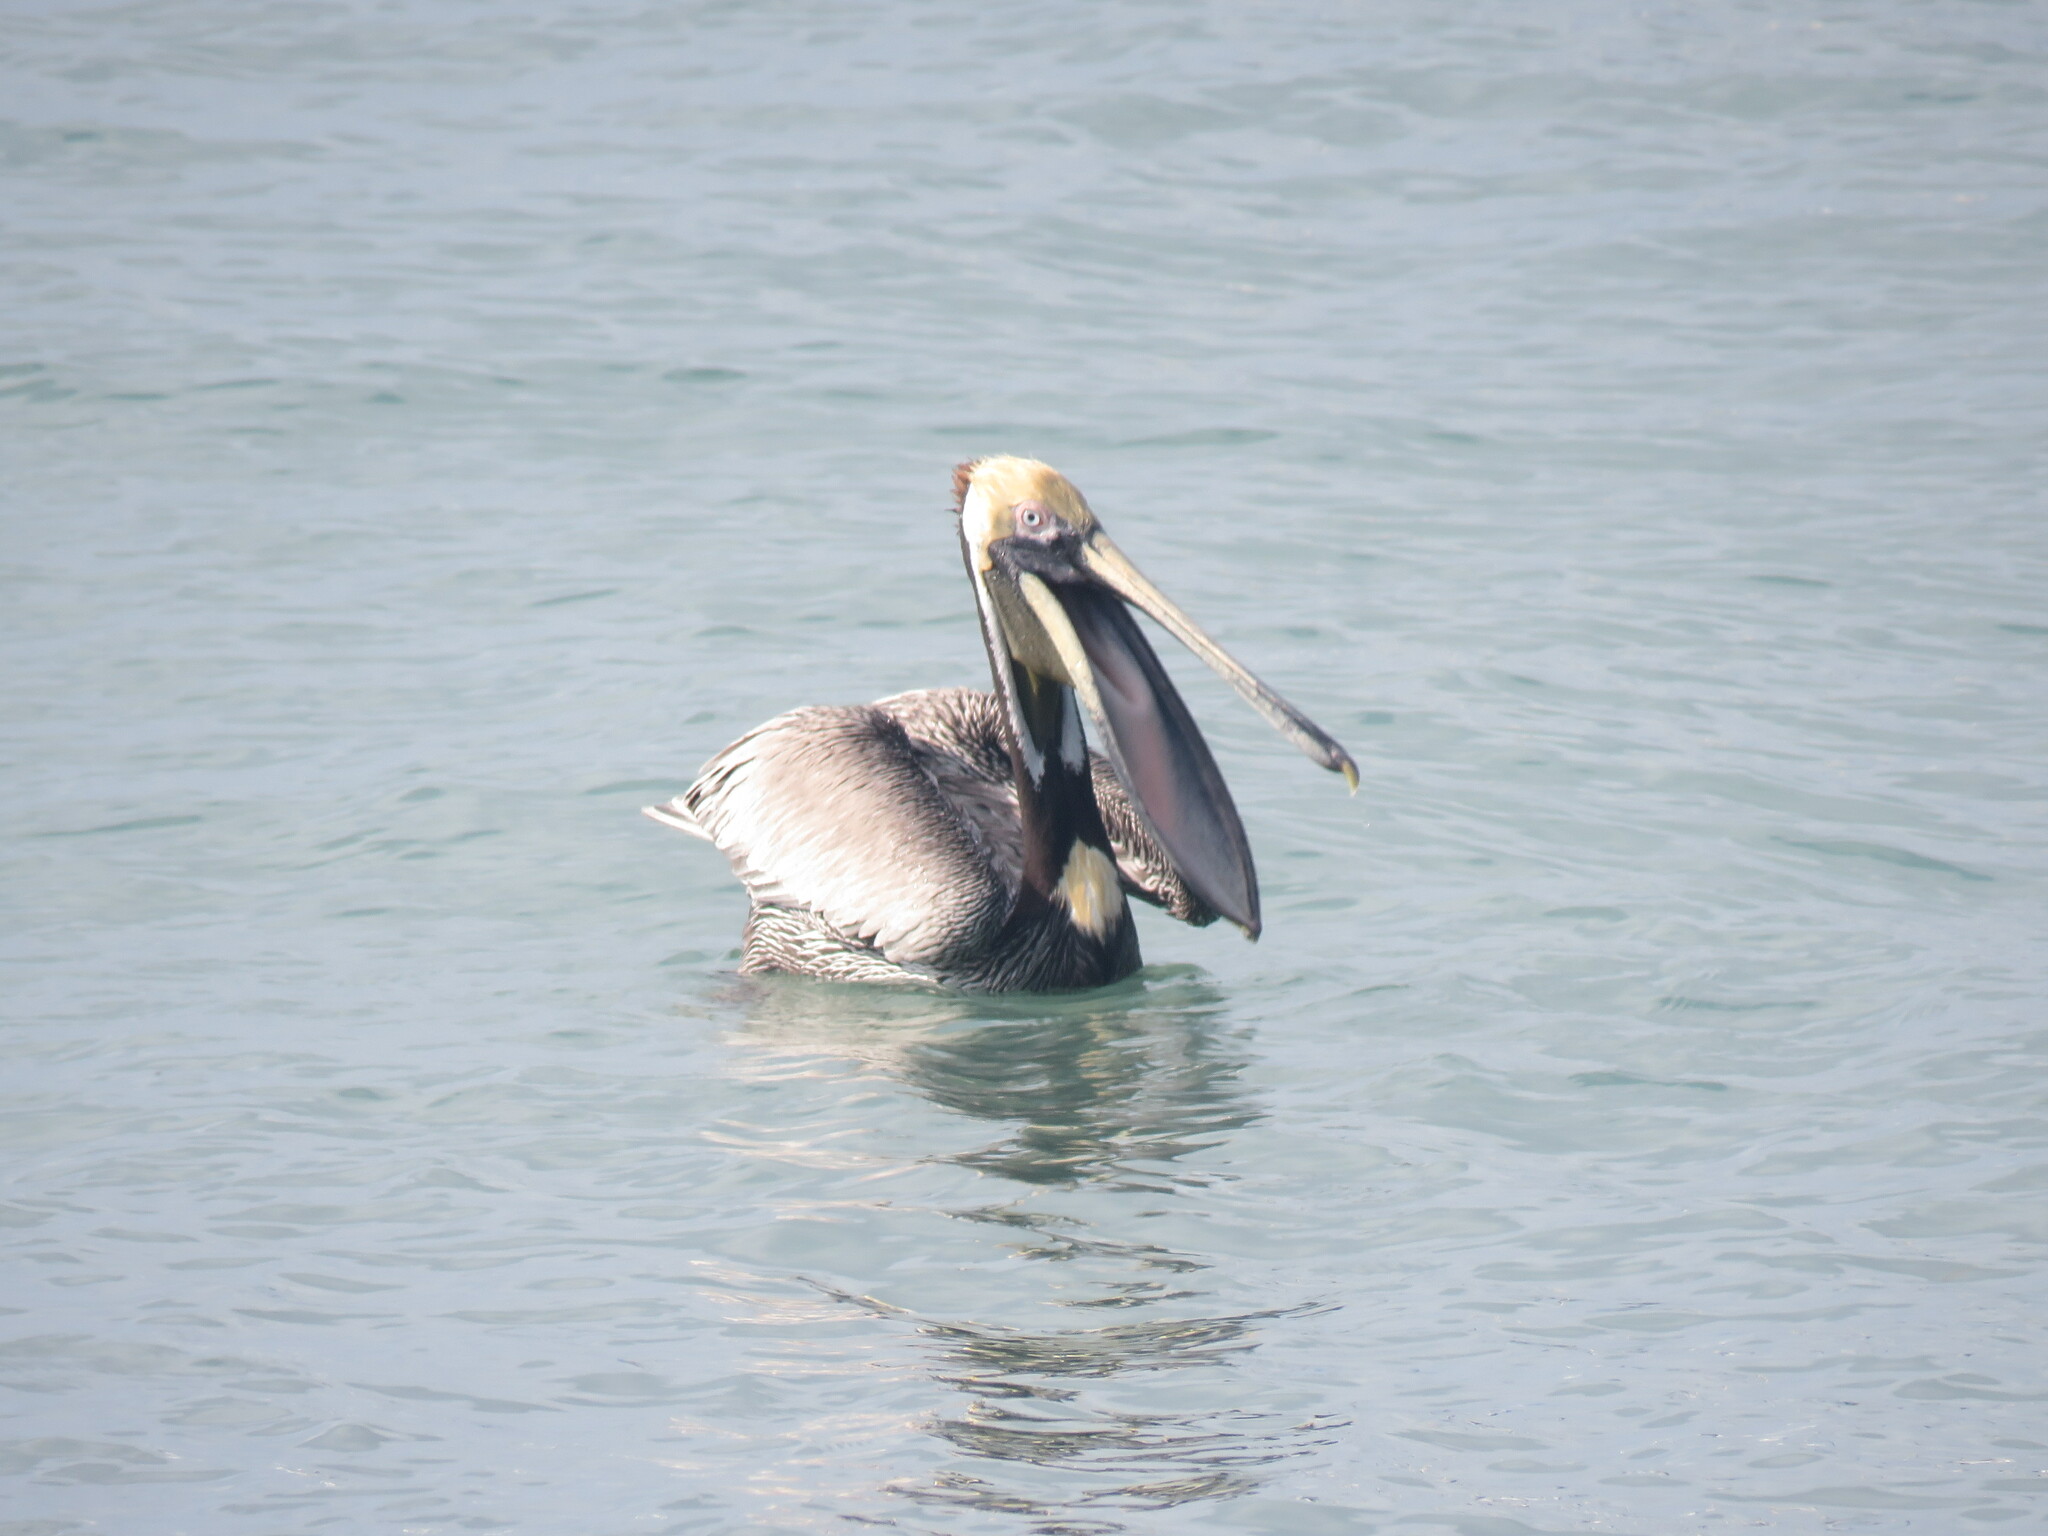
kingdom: Animalia
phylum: Chordata
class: Aves
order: Pelecaniformes
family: Pelecanidae
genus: Pelecanus
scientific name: Pelecanus occidentalis
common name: Brown pelican
